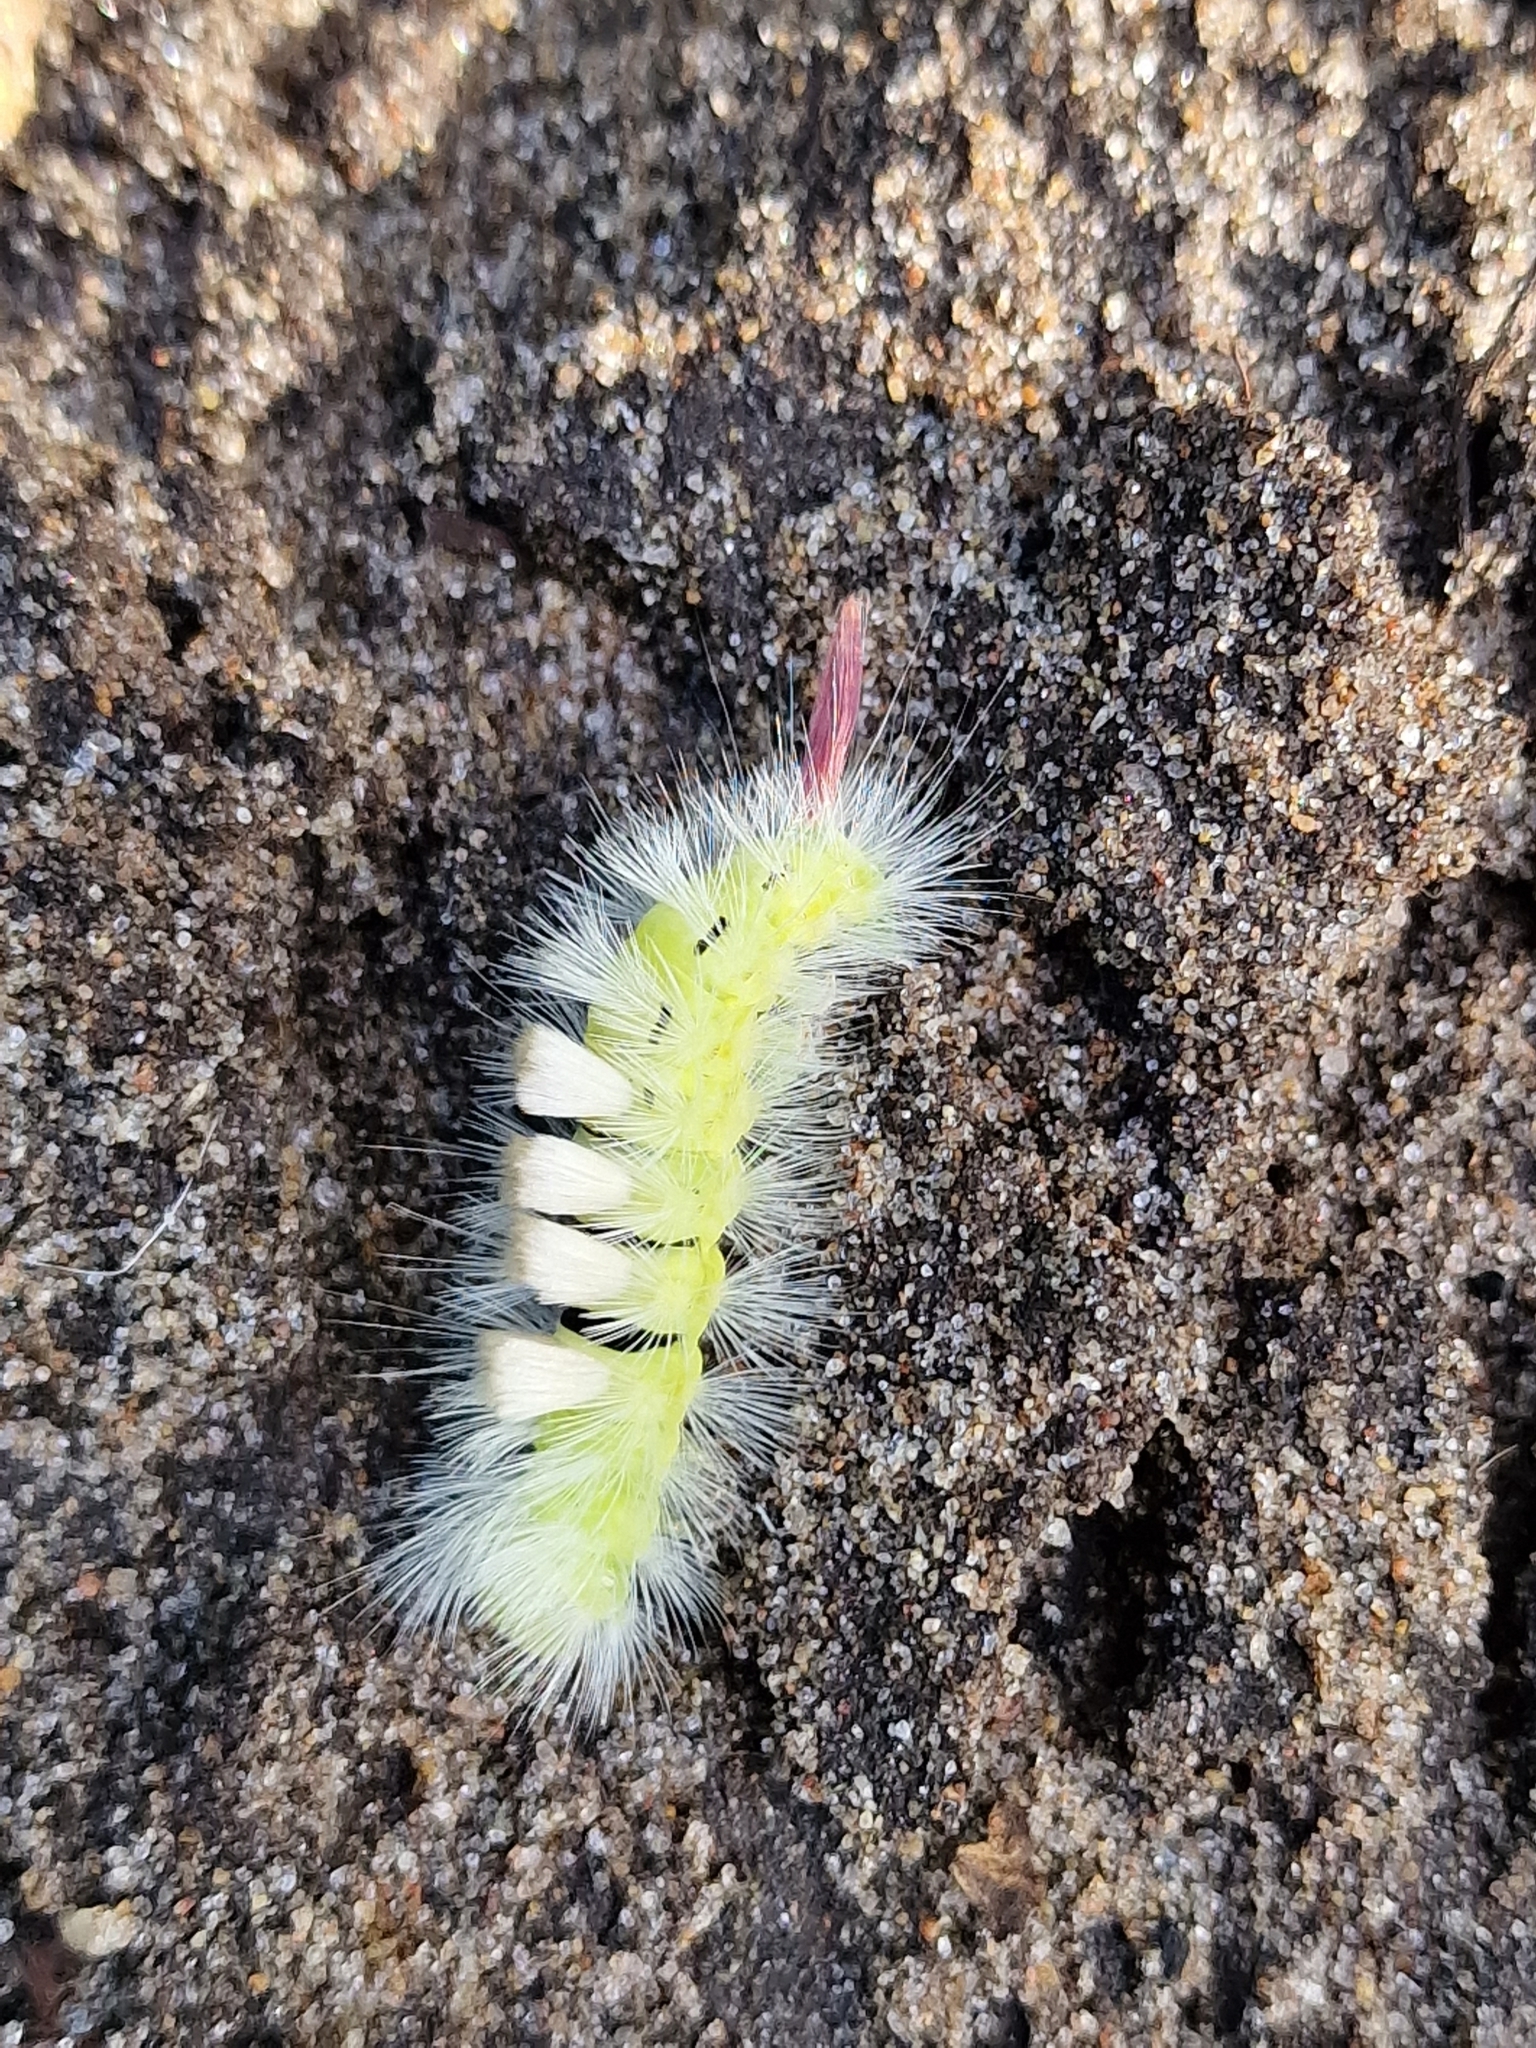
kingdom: Animalia
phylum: Arthropoda
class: Insecta
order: Lepidoptera
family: Erebidae
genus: Calliteara
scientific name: Calliteara pudibunda
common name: Pale tussock
